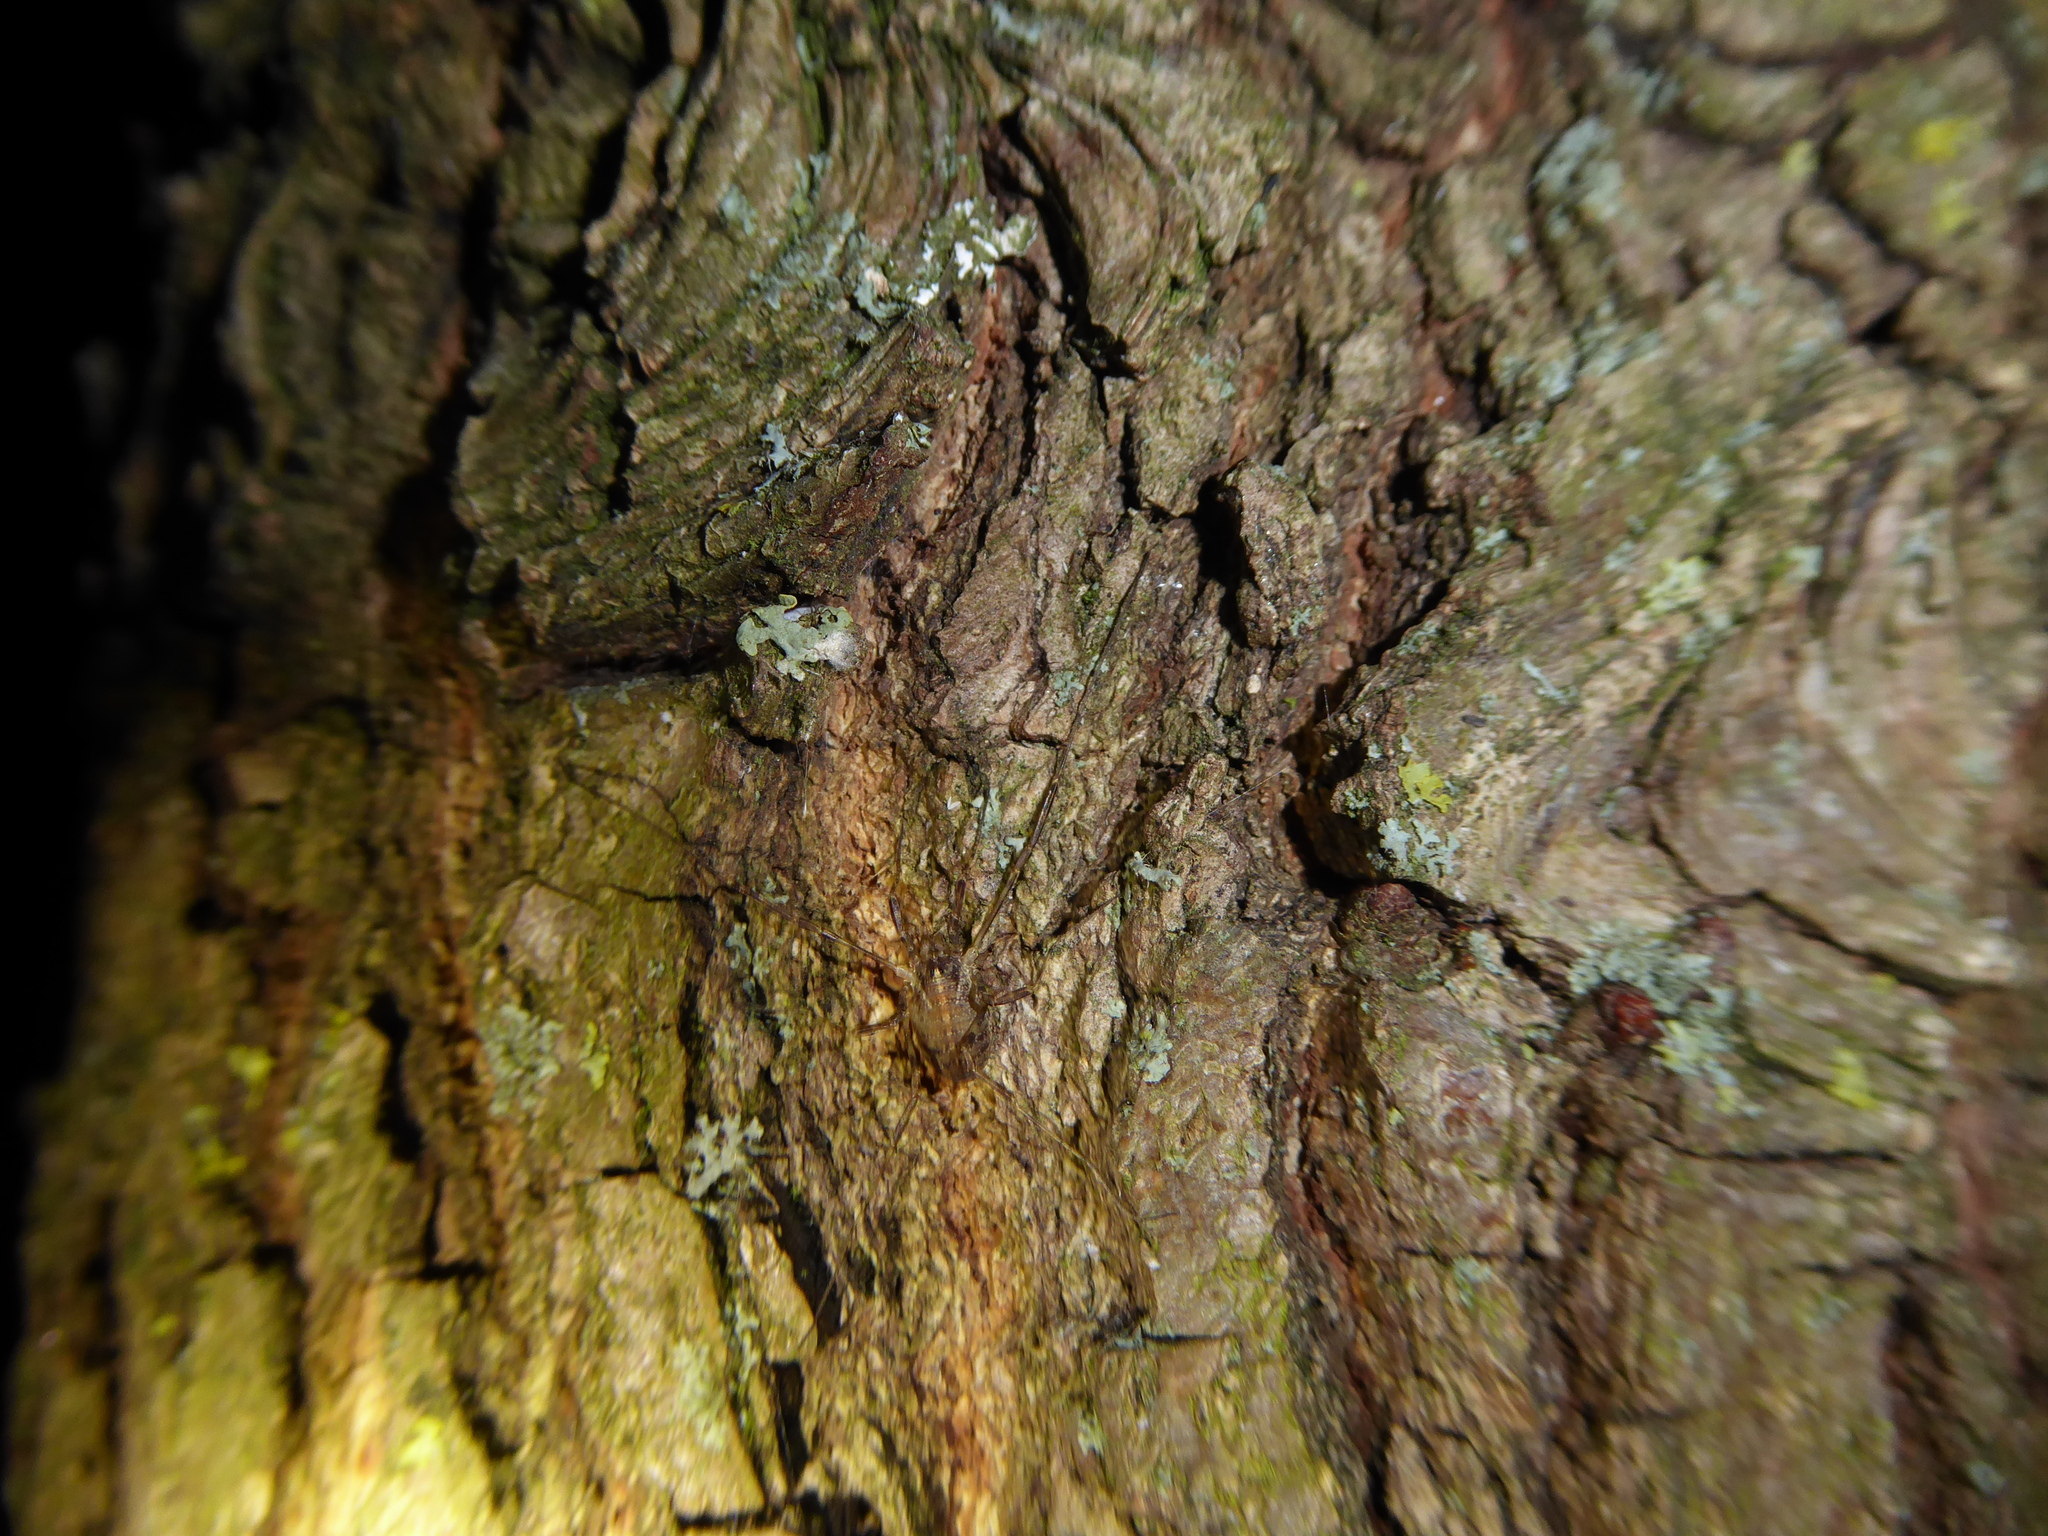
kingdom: Animalia
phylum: Arthropoda
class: Arachnida
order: Opiliones
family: Phalangiidae
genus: Paroligolophus
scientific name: Paroligolophus agrestis
